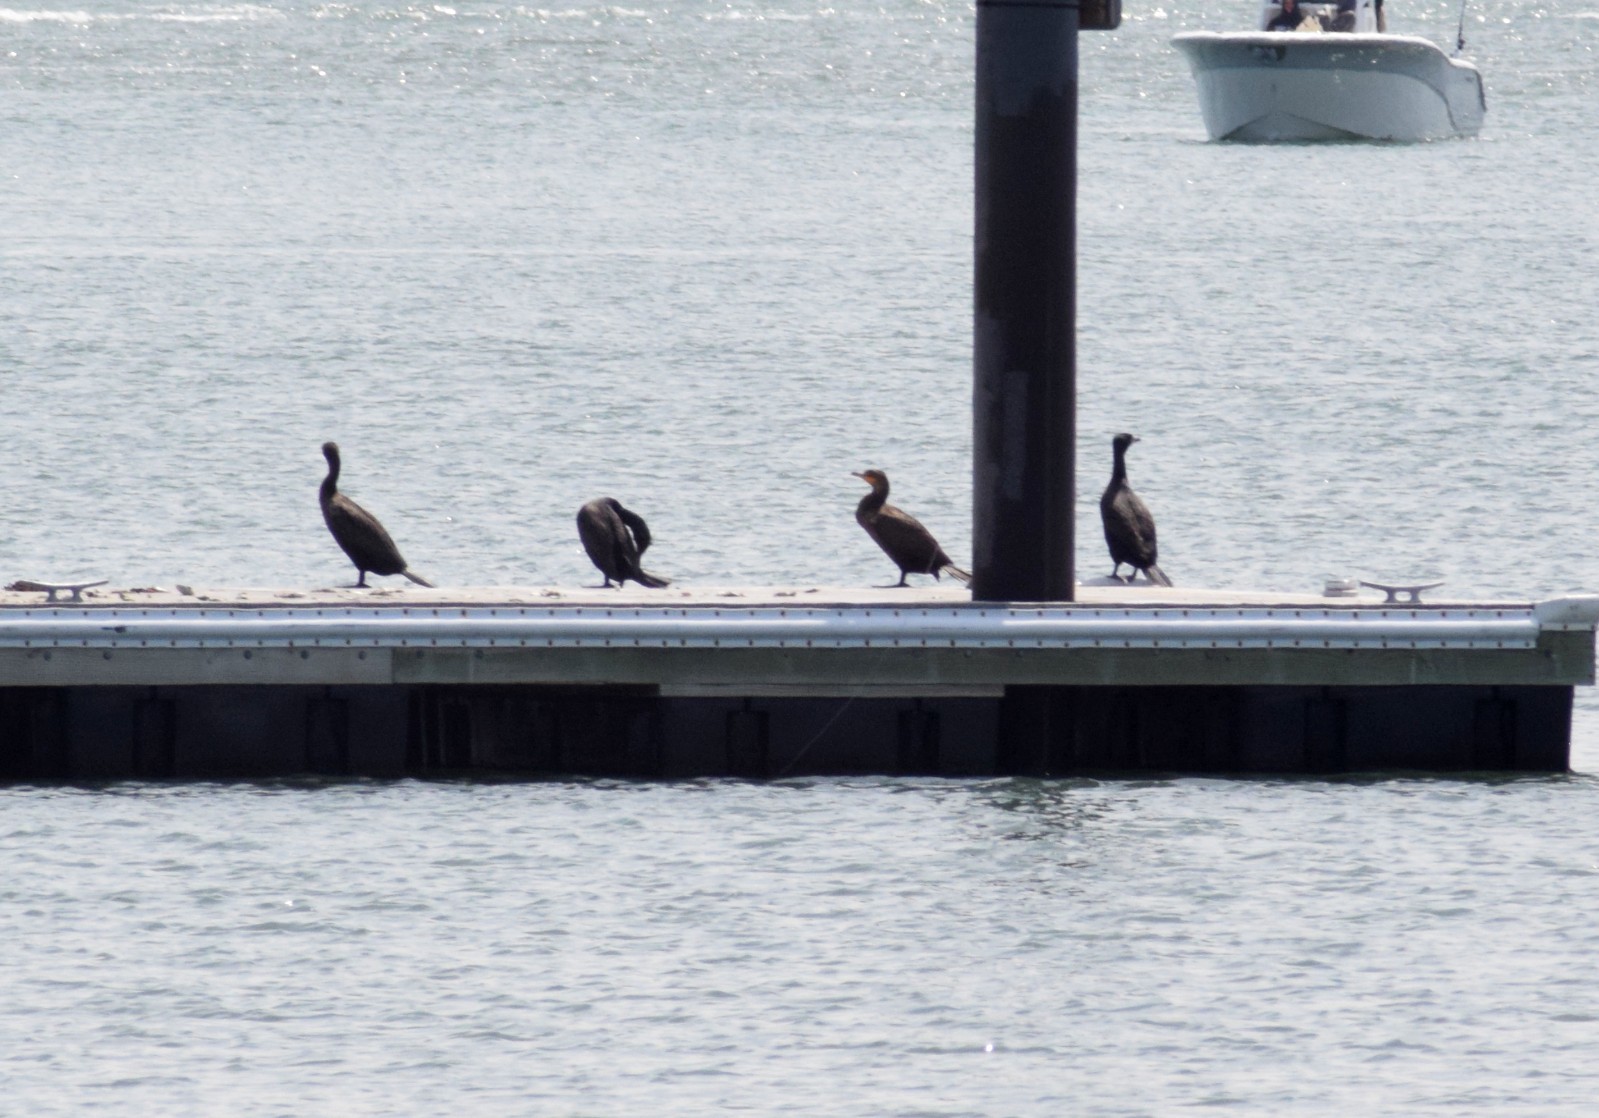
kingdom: Animalia
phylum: Chordata
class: Aves
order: Suliformes
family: Phalacrocoracidae
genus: Phalacrocorax
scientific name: Phalacrocorax auritus
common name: Double-crested cormorant
